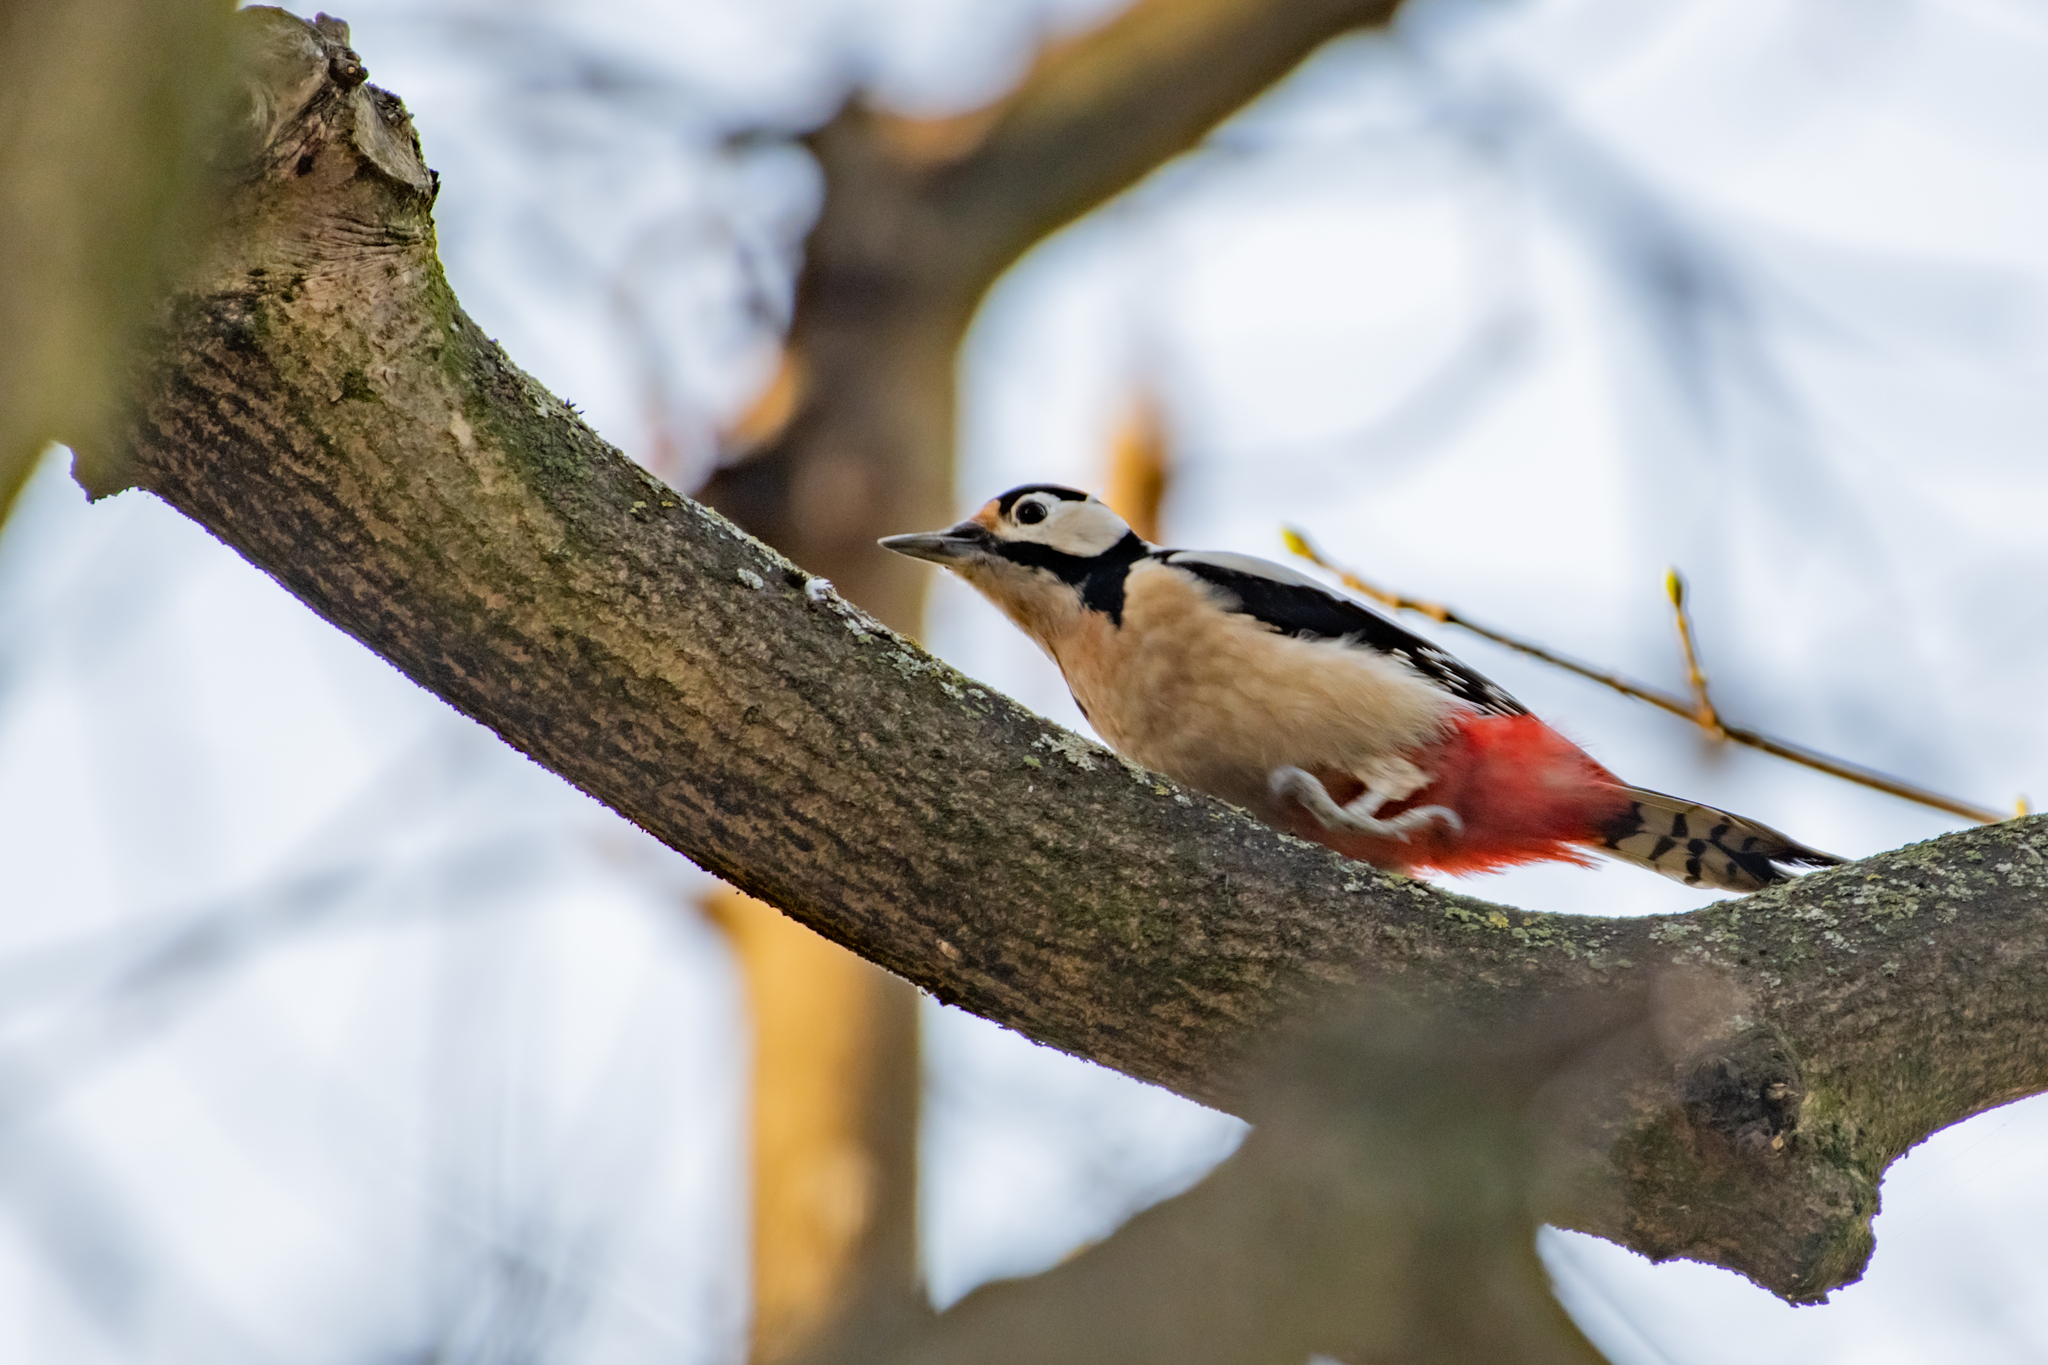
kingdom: Animalia
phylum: Chordata
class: Aves
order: Piciformes
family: Picidae
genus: Dendrocopos
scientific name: Dendrocopos major
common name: Great spotted woodpecker
